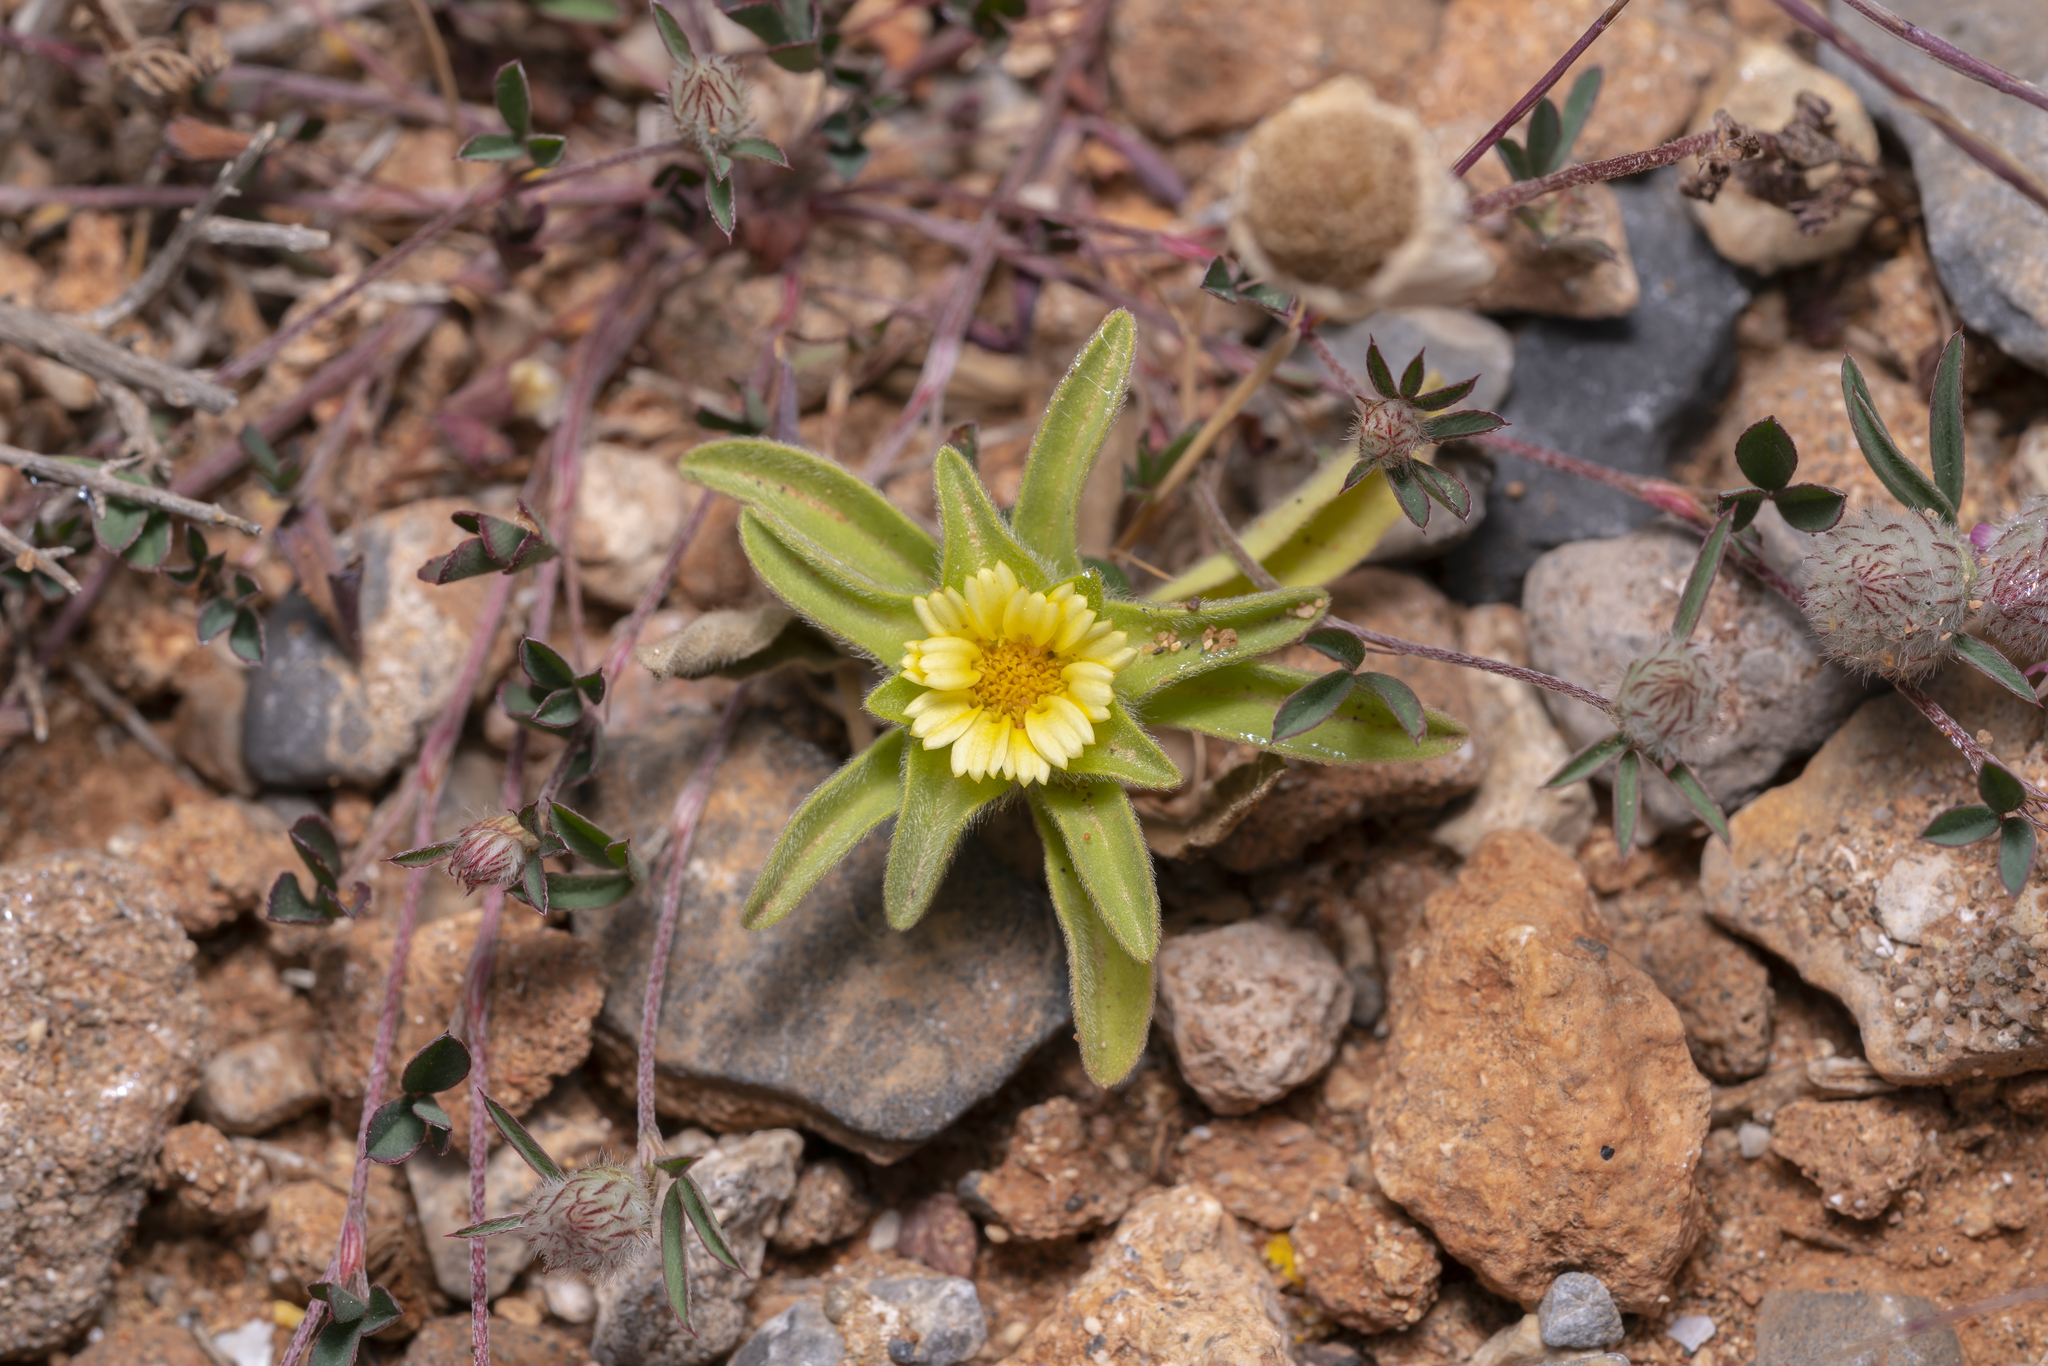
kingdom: Plantae
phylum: Tracheophyta
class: Magnoliopsida
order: Asterales
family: Asteraceae
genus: Asteriscus
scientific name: Asteriscus aquaticus
